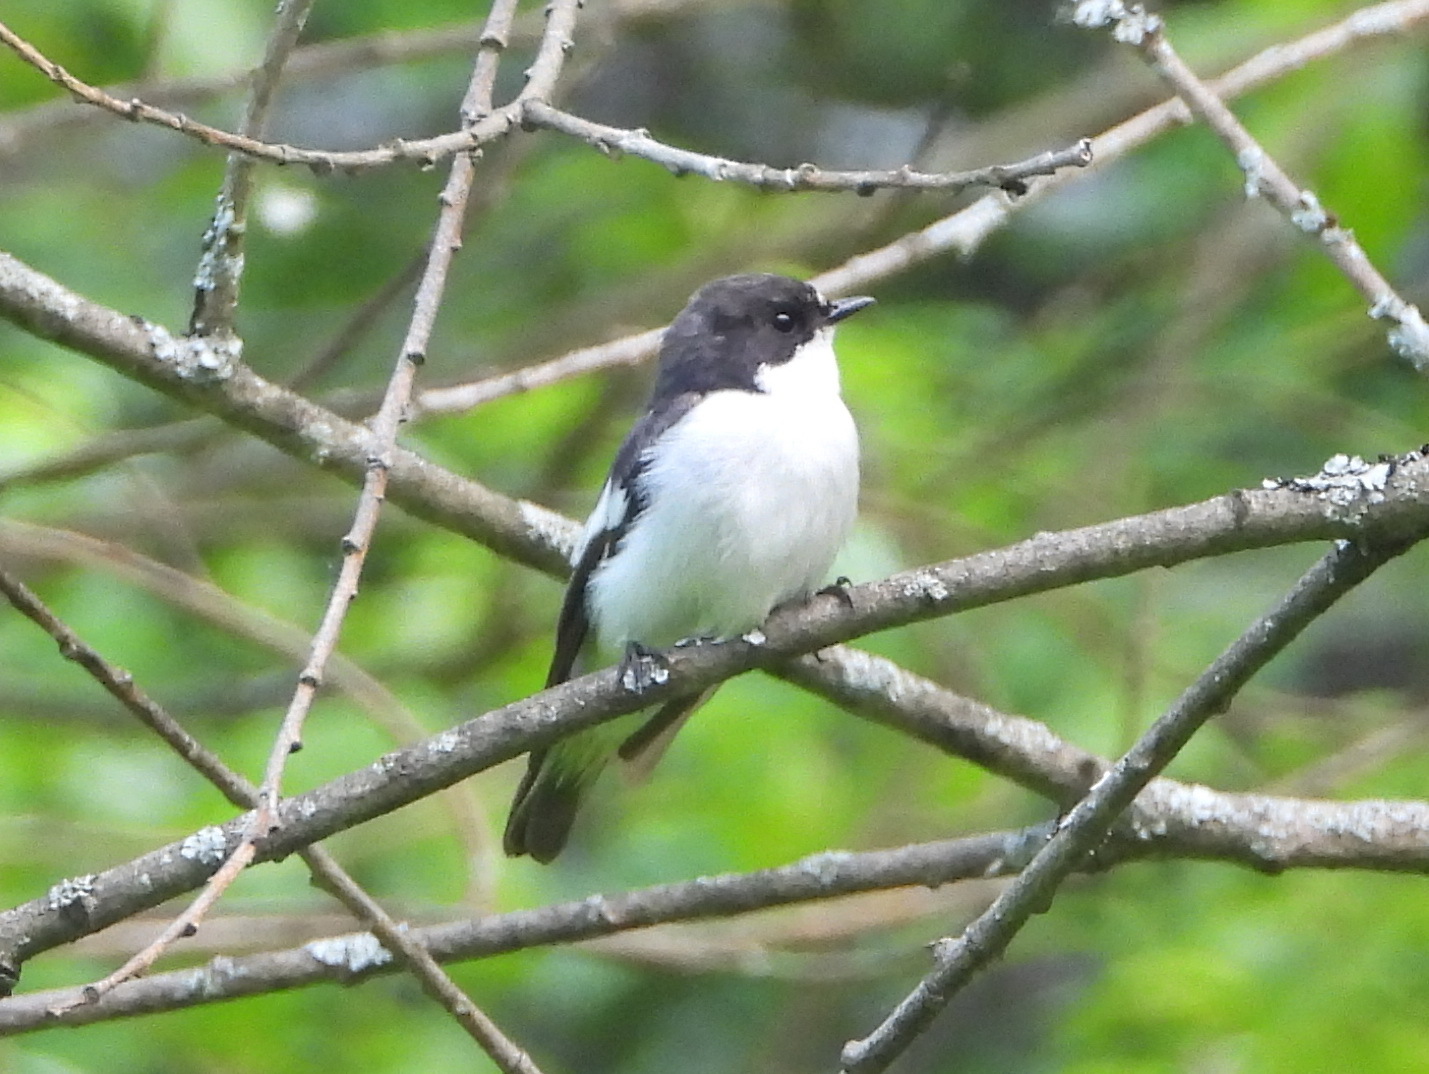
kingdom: Animalia
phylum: Chordata
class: Aves
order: Passeriformes
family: Muscicapidae
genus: Ficedula
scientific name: Ficedula hypoleuca
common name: European pied flycatcher
